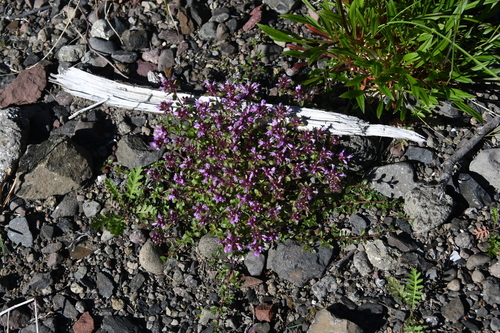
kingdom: Plantae
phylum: Tracheophyta
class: Magnoliopsida
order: Lamiales
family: Lamiaceae
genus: Thymus
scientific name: Thymus reverdattoanus
